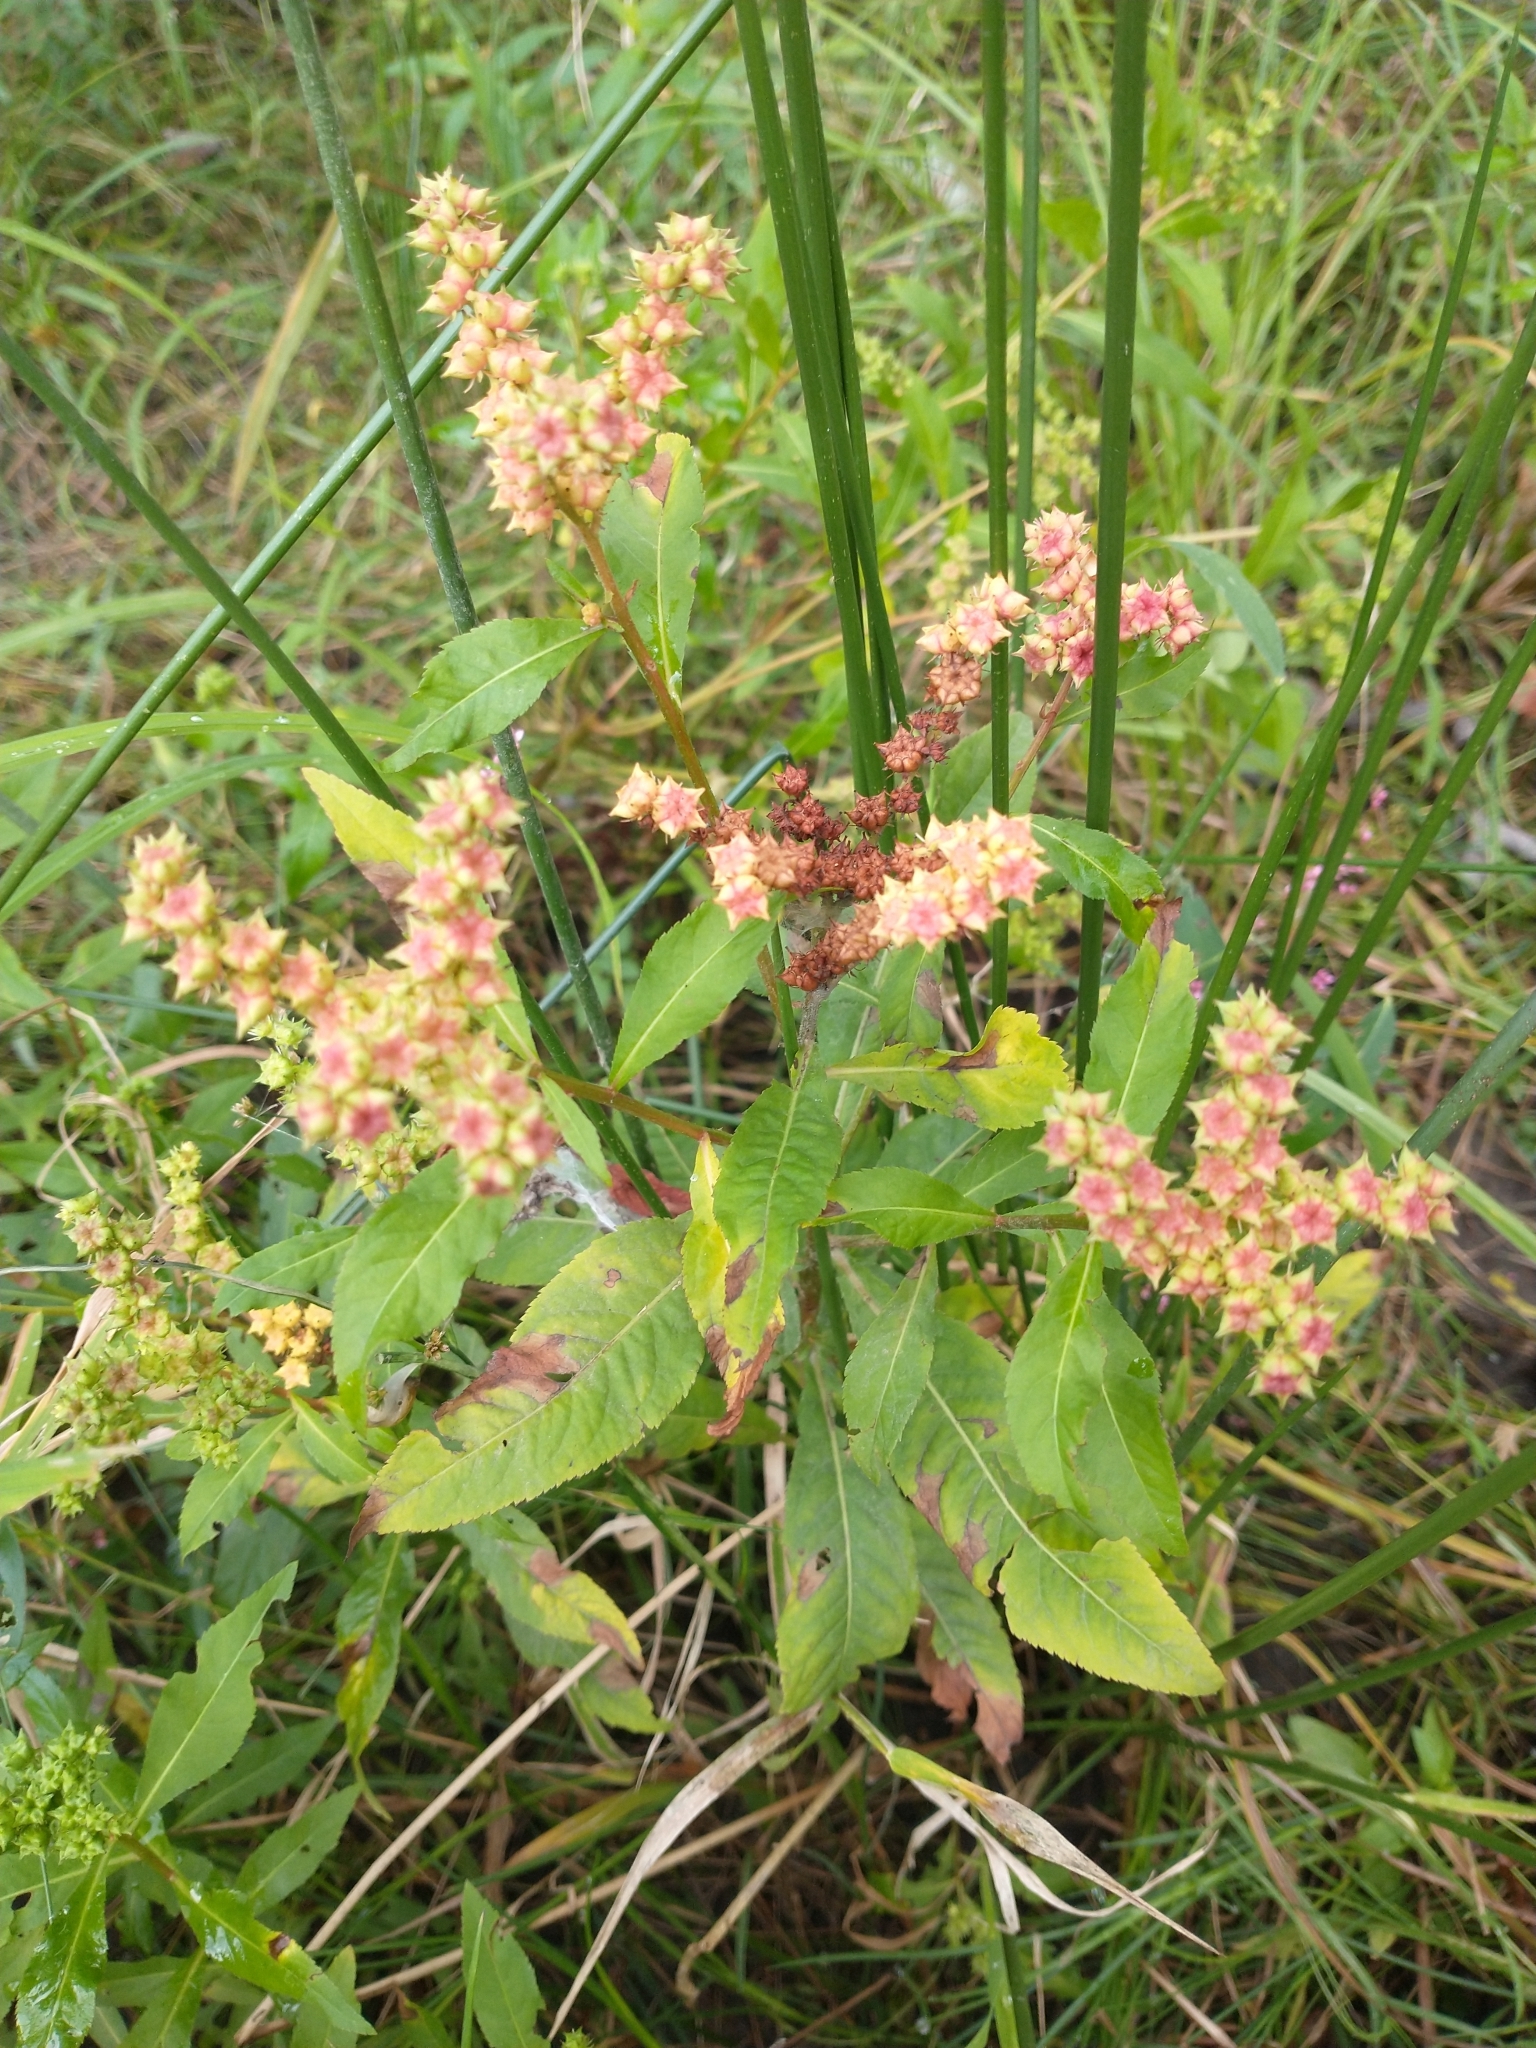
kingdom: Plantae
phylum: Tracheophyta
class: Magnoliopsida
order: Saxifragales
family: Penthoraceae
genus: Penthorum
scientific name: Penthorum sedoides
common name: Ditch stonecrop
